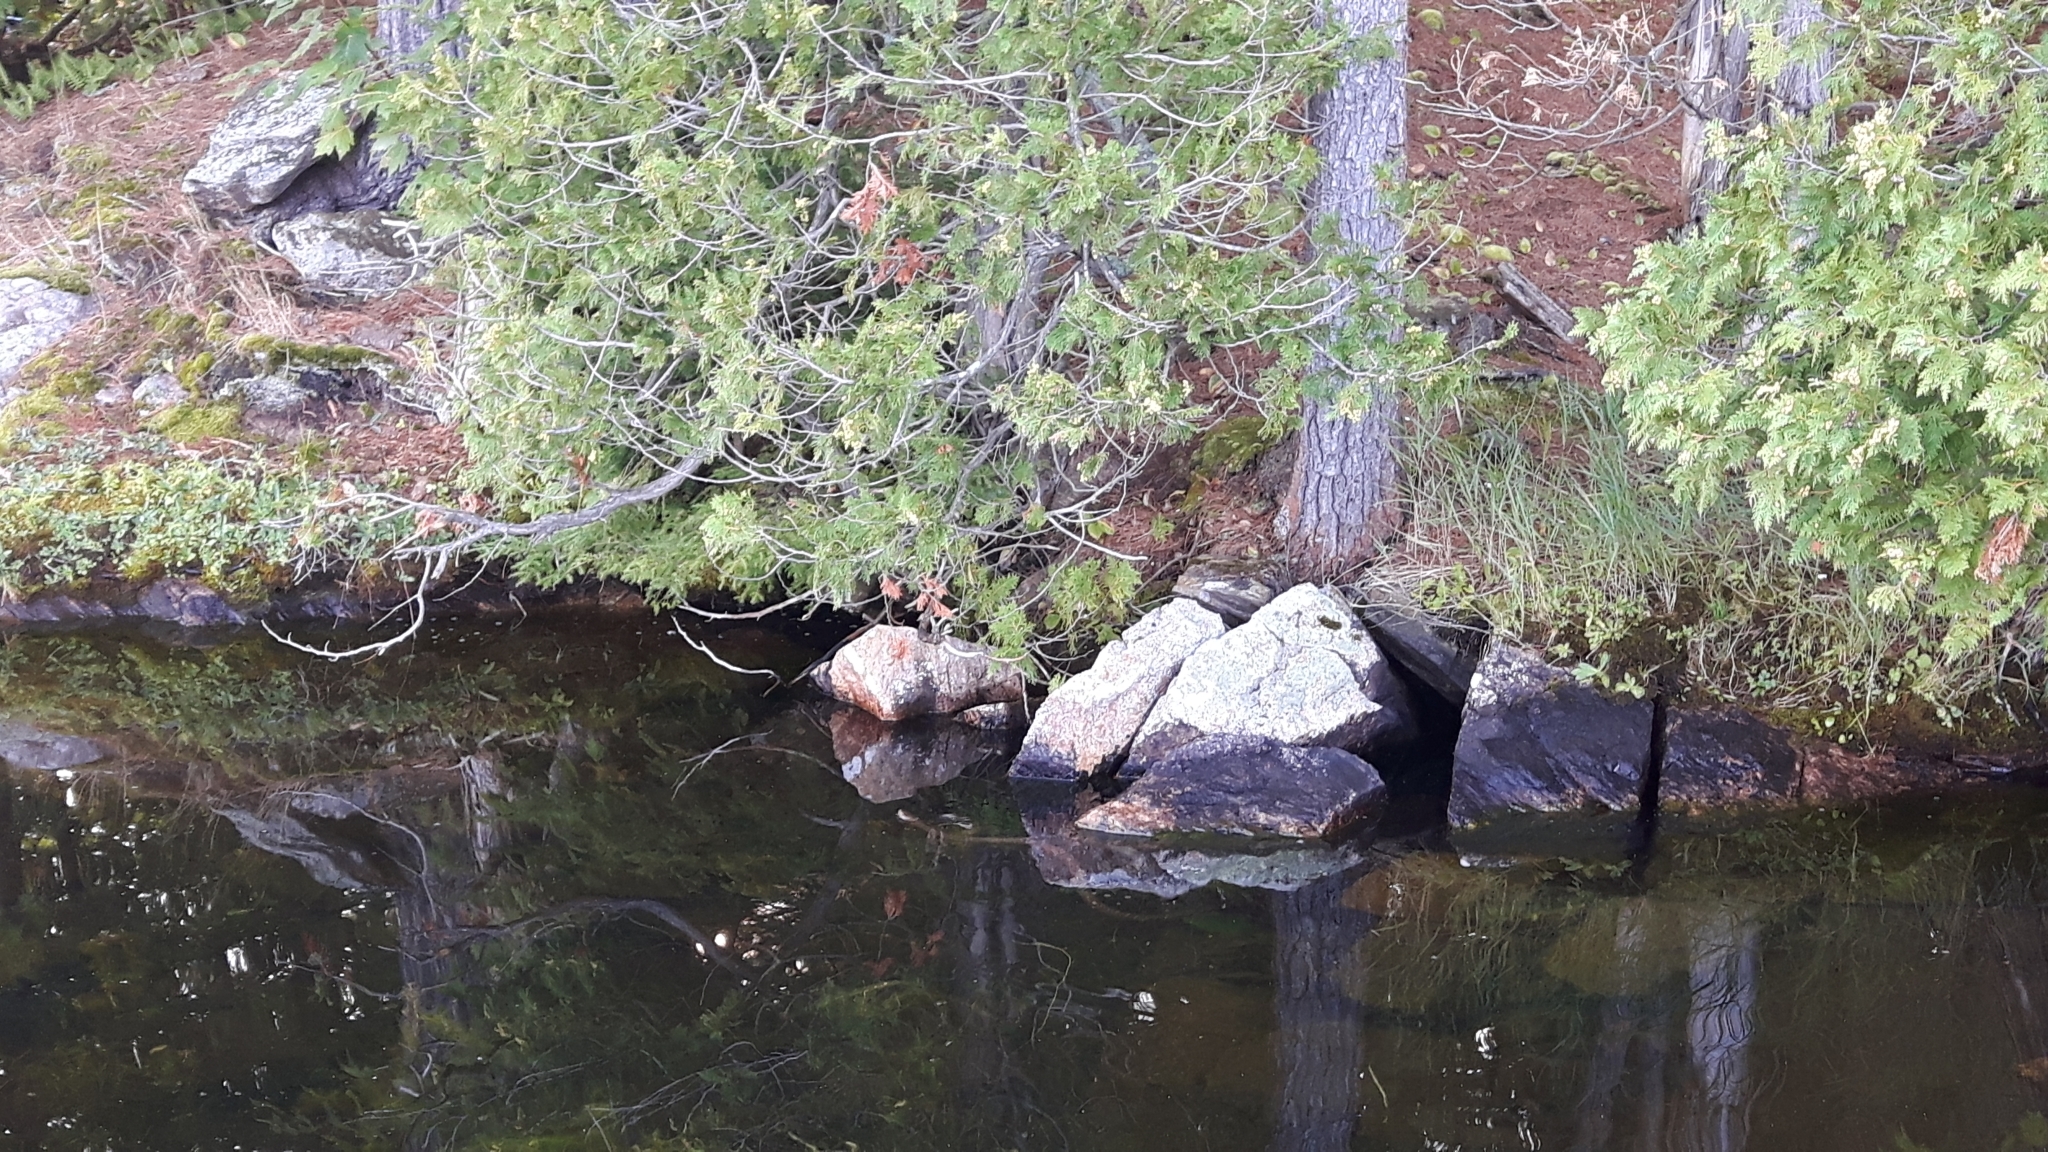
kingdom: Animalia
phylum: Chordata
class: Squamata
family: Colubridae
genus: Nerodia
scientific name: Nerodia sipedon
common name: Northern water snake
